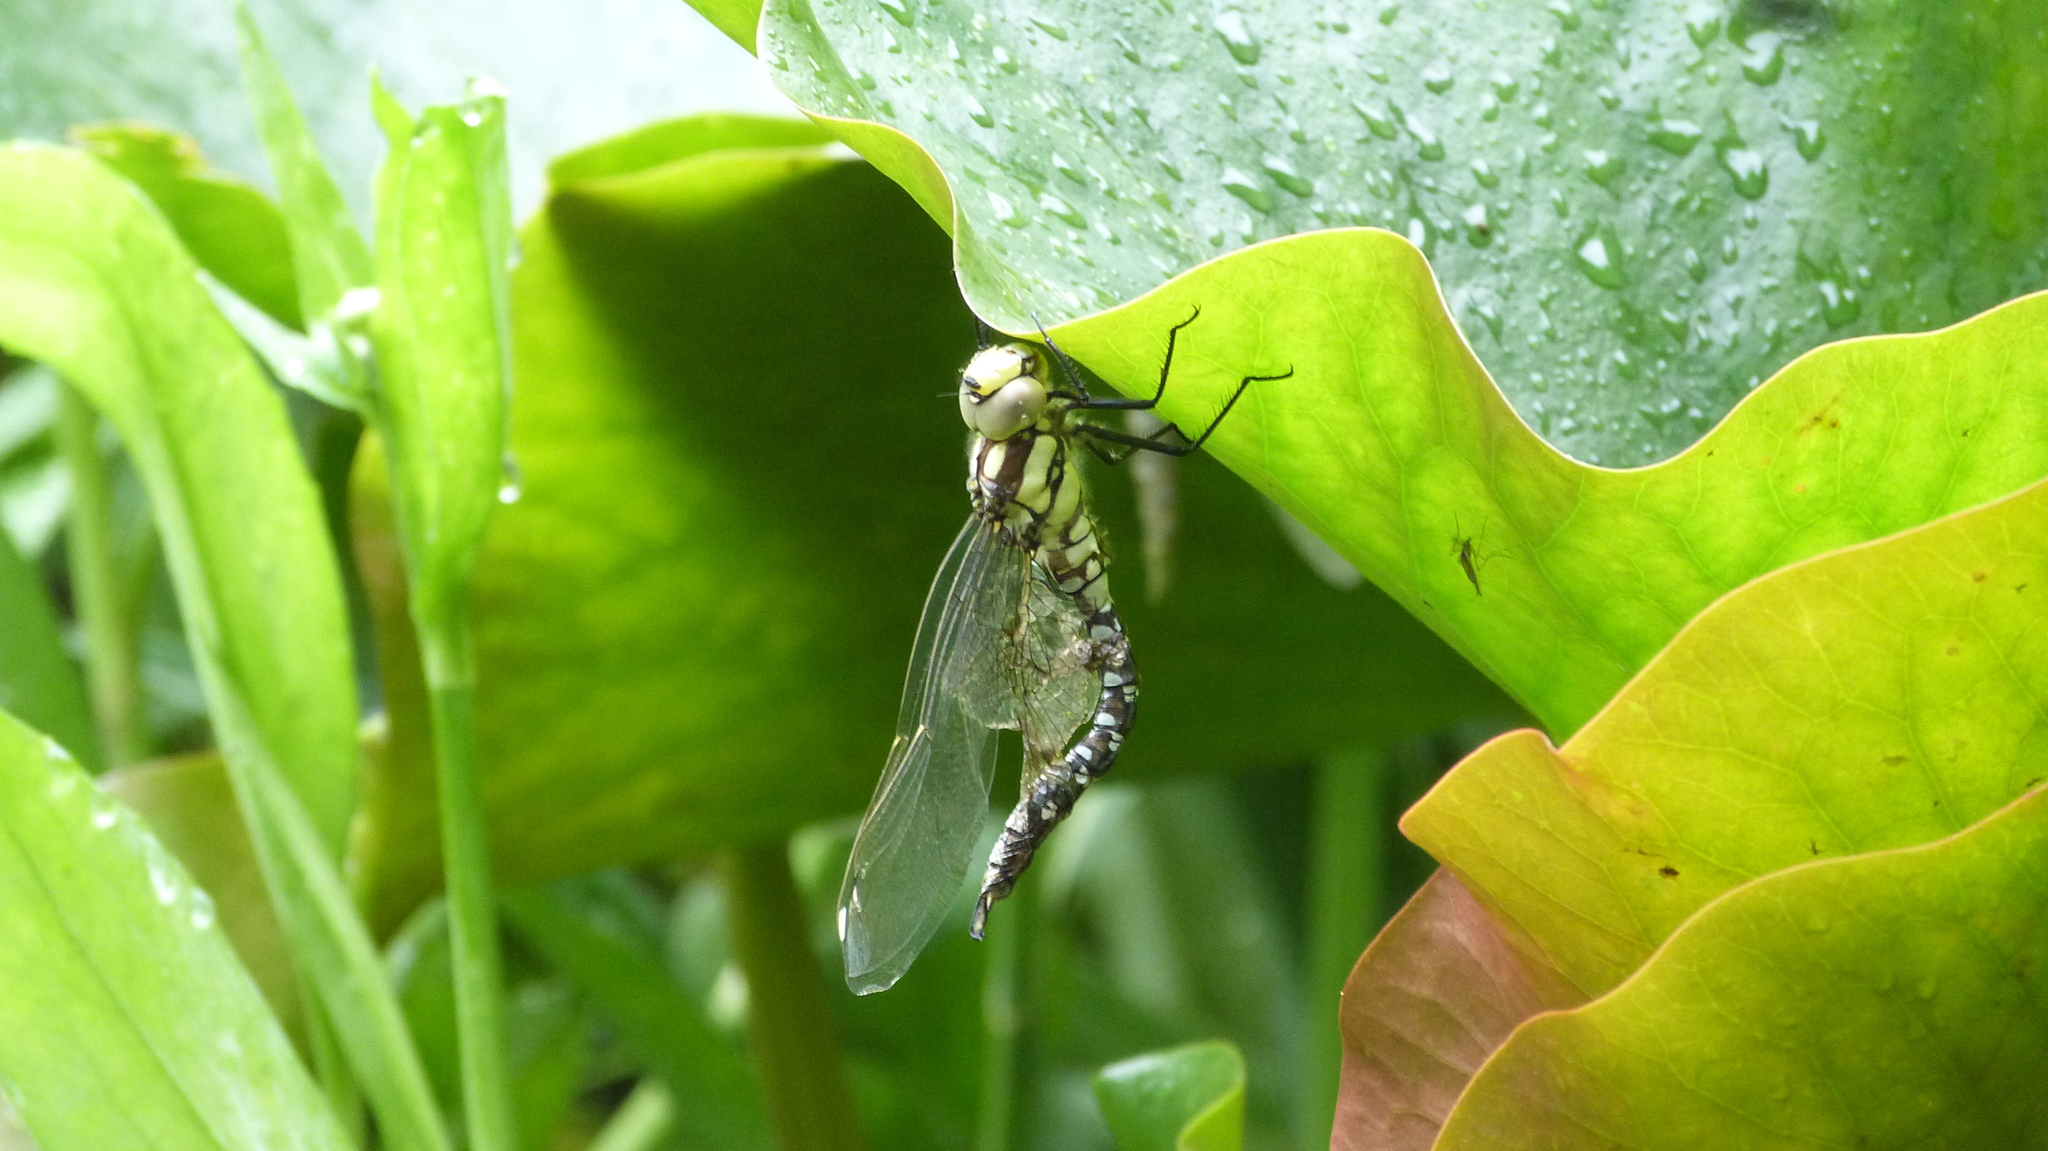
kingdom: Animalia
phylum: Arthropoda
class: Insecta
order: Odonata
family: Aeshnidae
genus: Aeshna
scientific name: Aeshna cyanea
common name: Southern hawker
